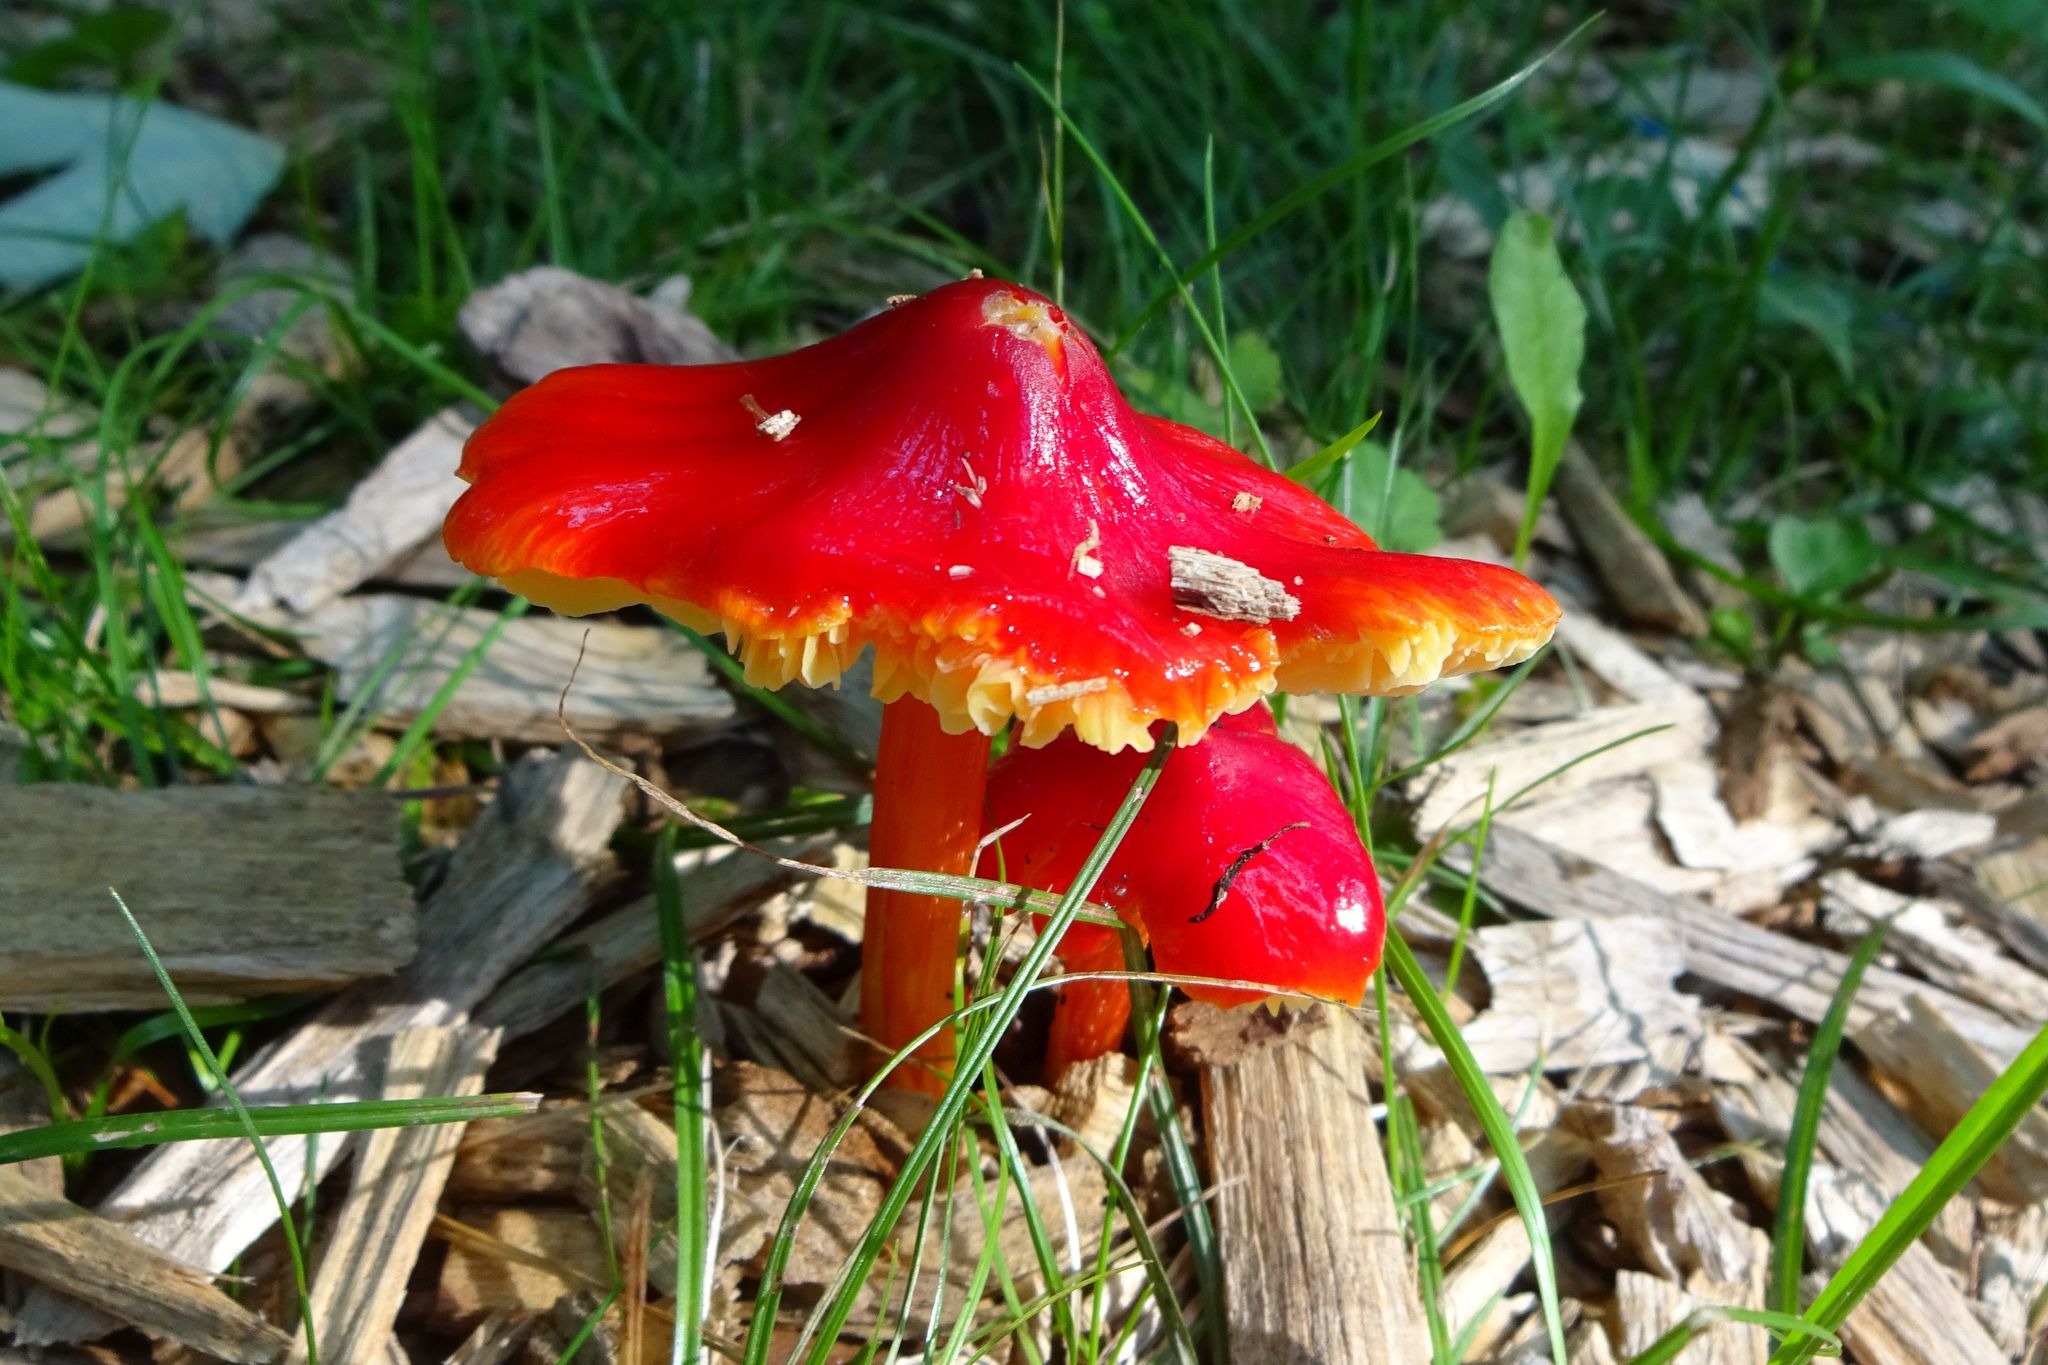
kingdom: Fungi
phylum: Basidiomycota
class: Agaricomycetes
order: Agaricales
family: Hygrophoraceae
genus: Hygrocybe
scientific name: Hygrocybe cuspidata
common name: Candy apple waxy cap
